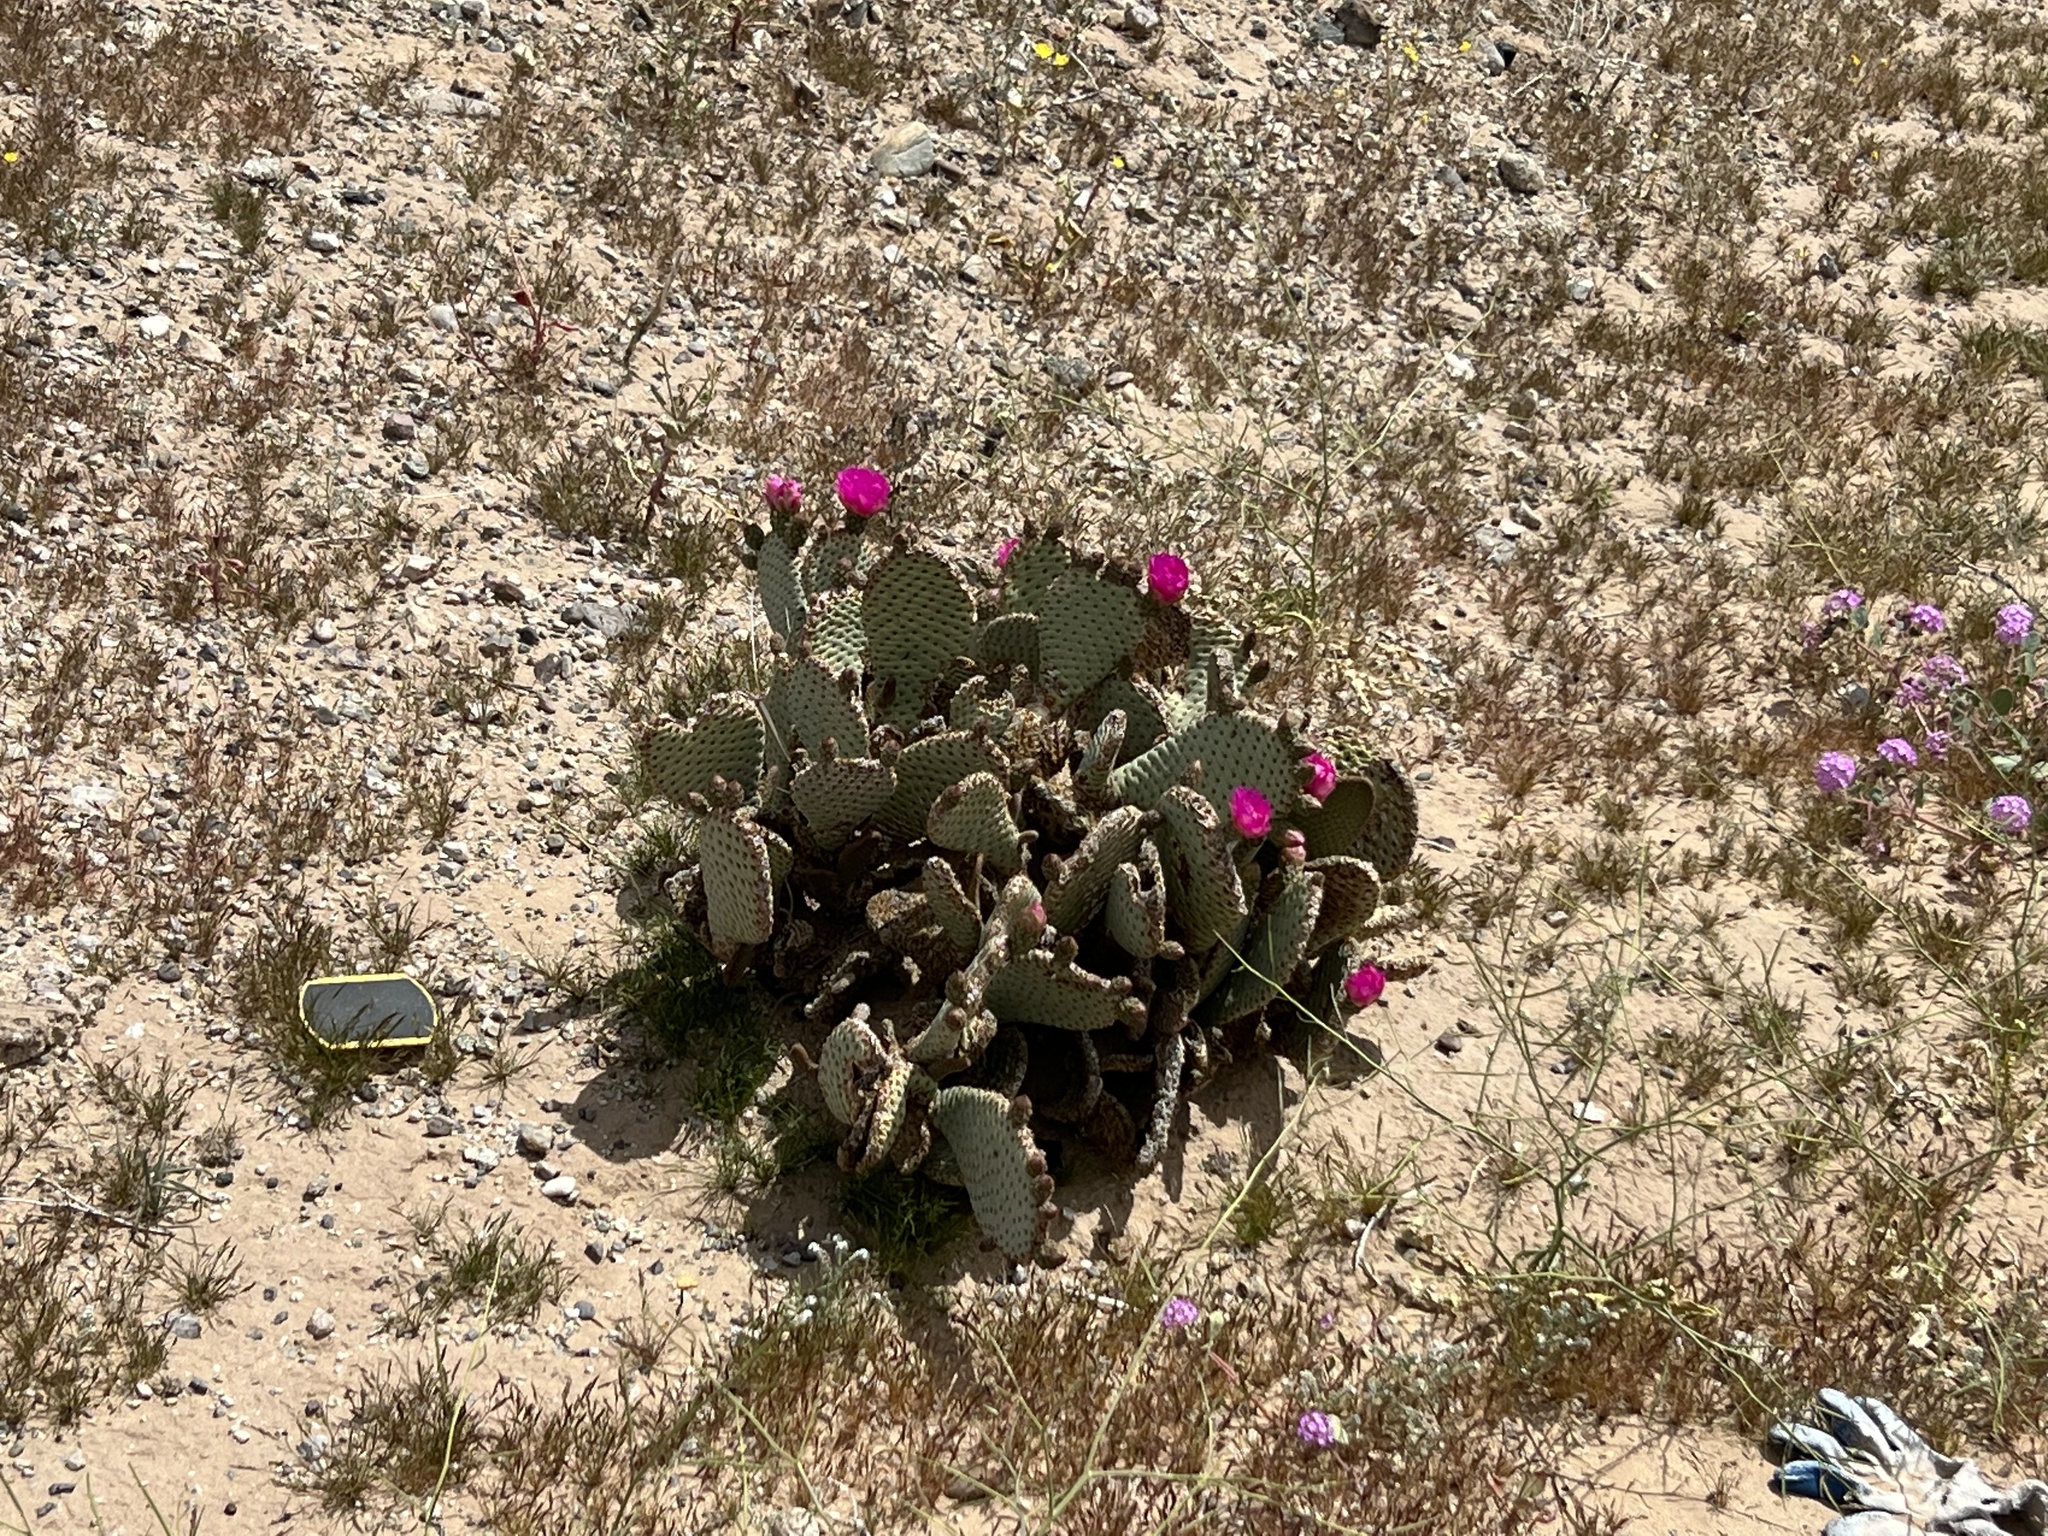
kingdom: Plantae
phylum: Tracheophyta
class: Magnoliopsida
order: Caryophyllales
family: Cactaceae
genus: Opuntia
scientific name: Opuntia basilaris
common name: Beavertail prickly-pear
